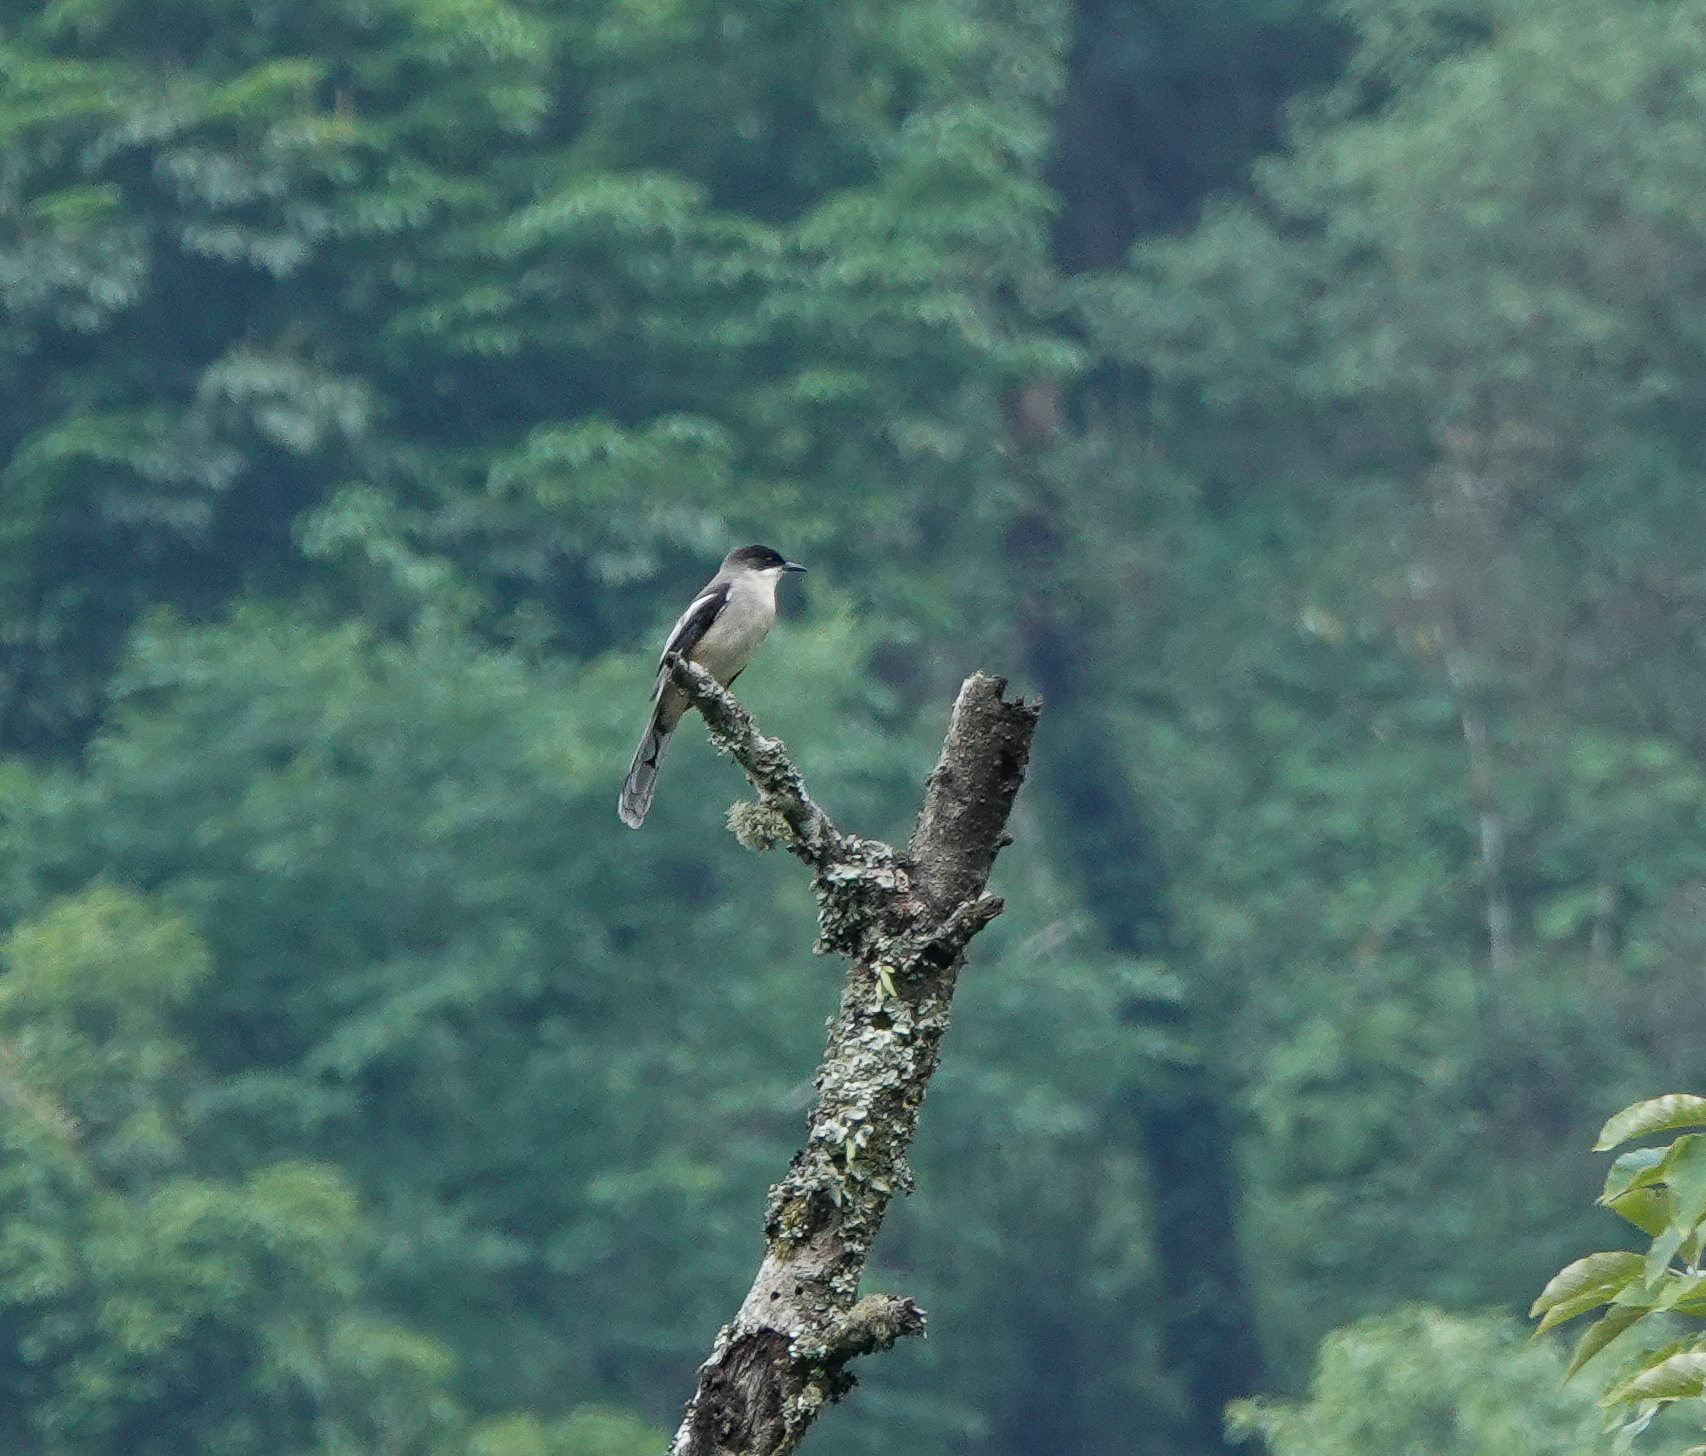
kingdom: Animalia
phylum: Chordata
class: Aves
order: Passeriformes
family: Leiothrichidae
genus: Heterophasia
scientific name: Heterophasia gracilis
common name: Grey sibia
